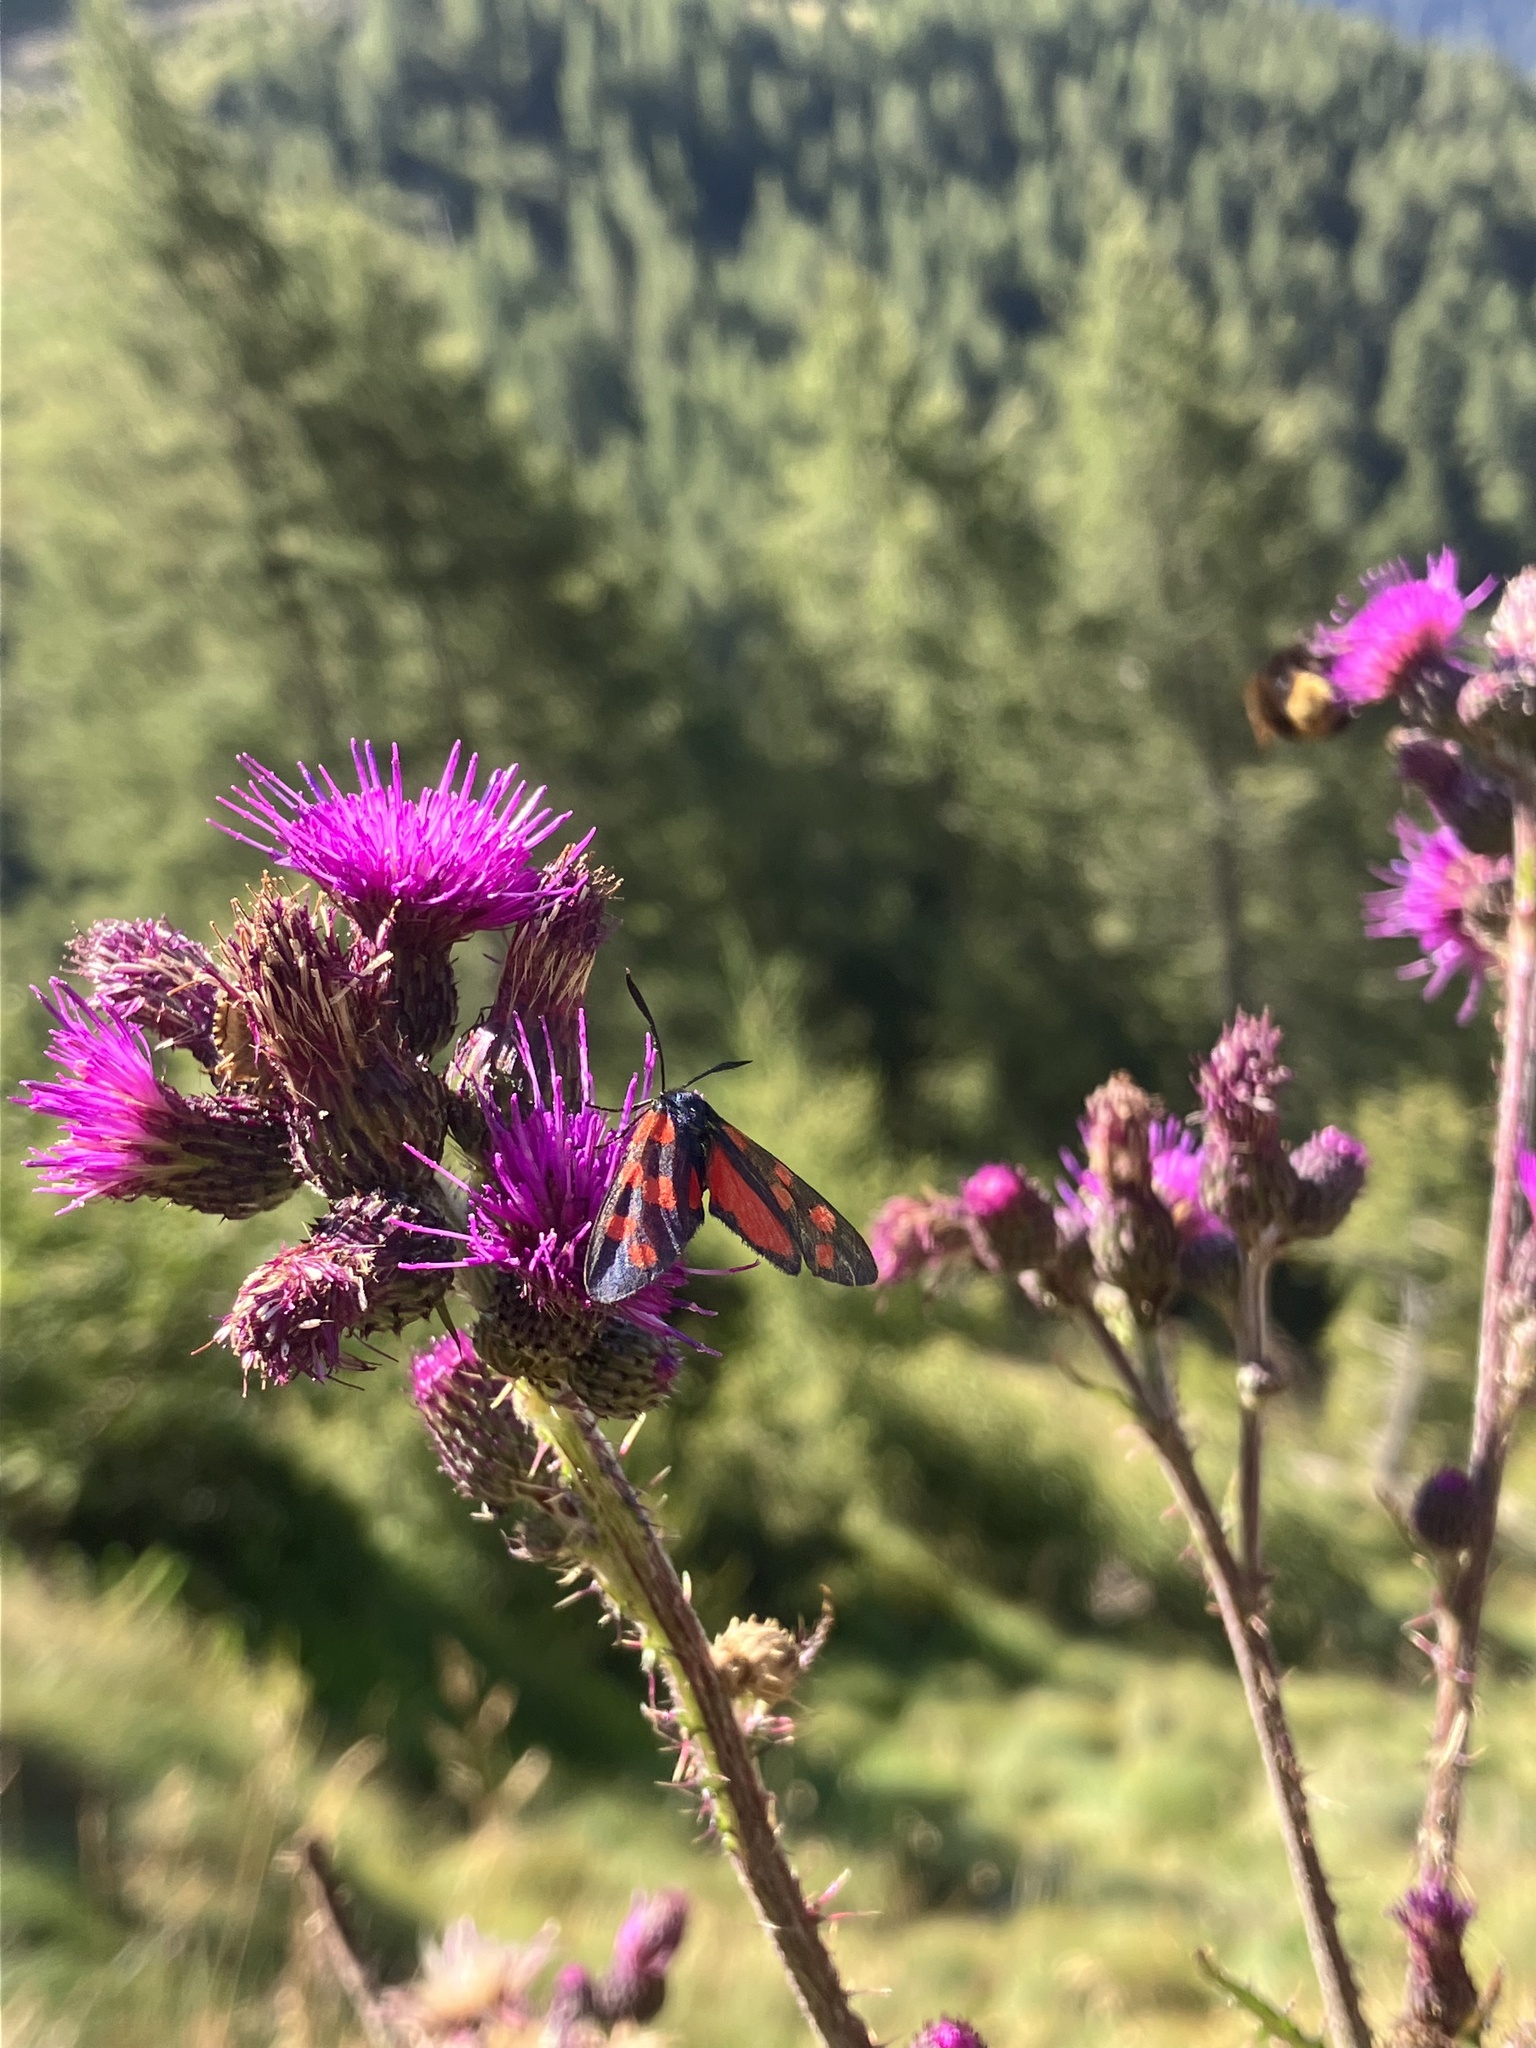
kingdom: Animalia
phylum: Arthropoda
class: Insecta
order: Lepidoptera
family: Zygaenidae
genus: Zygaena
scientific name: Zygaena transalpina
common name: Southern six spot burnet
